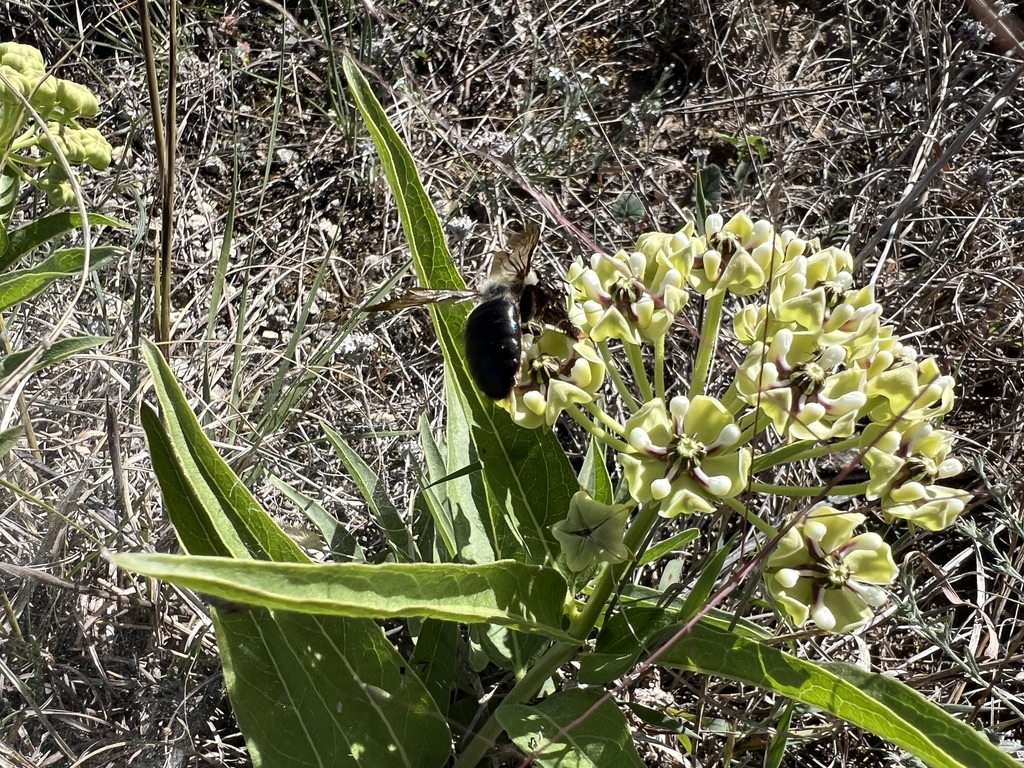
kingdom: Animalia
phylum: Arthropoda
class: Insecta
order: Hymenoptera
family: Apidae
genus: Xylocopa
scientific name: Xylocopa virginica
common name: Carpenter bee
